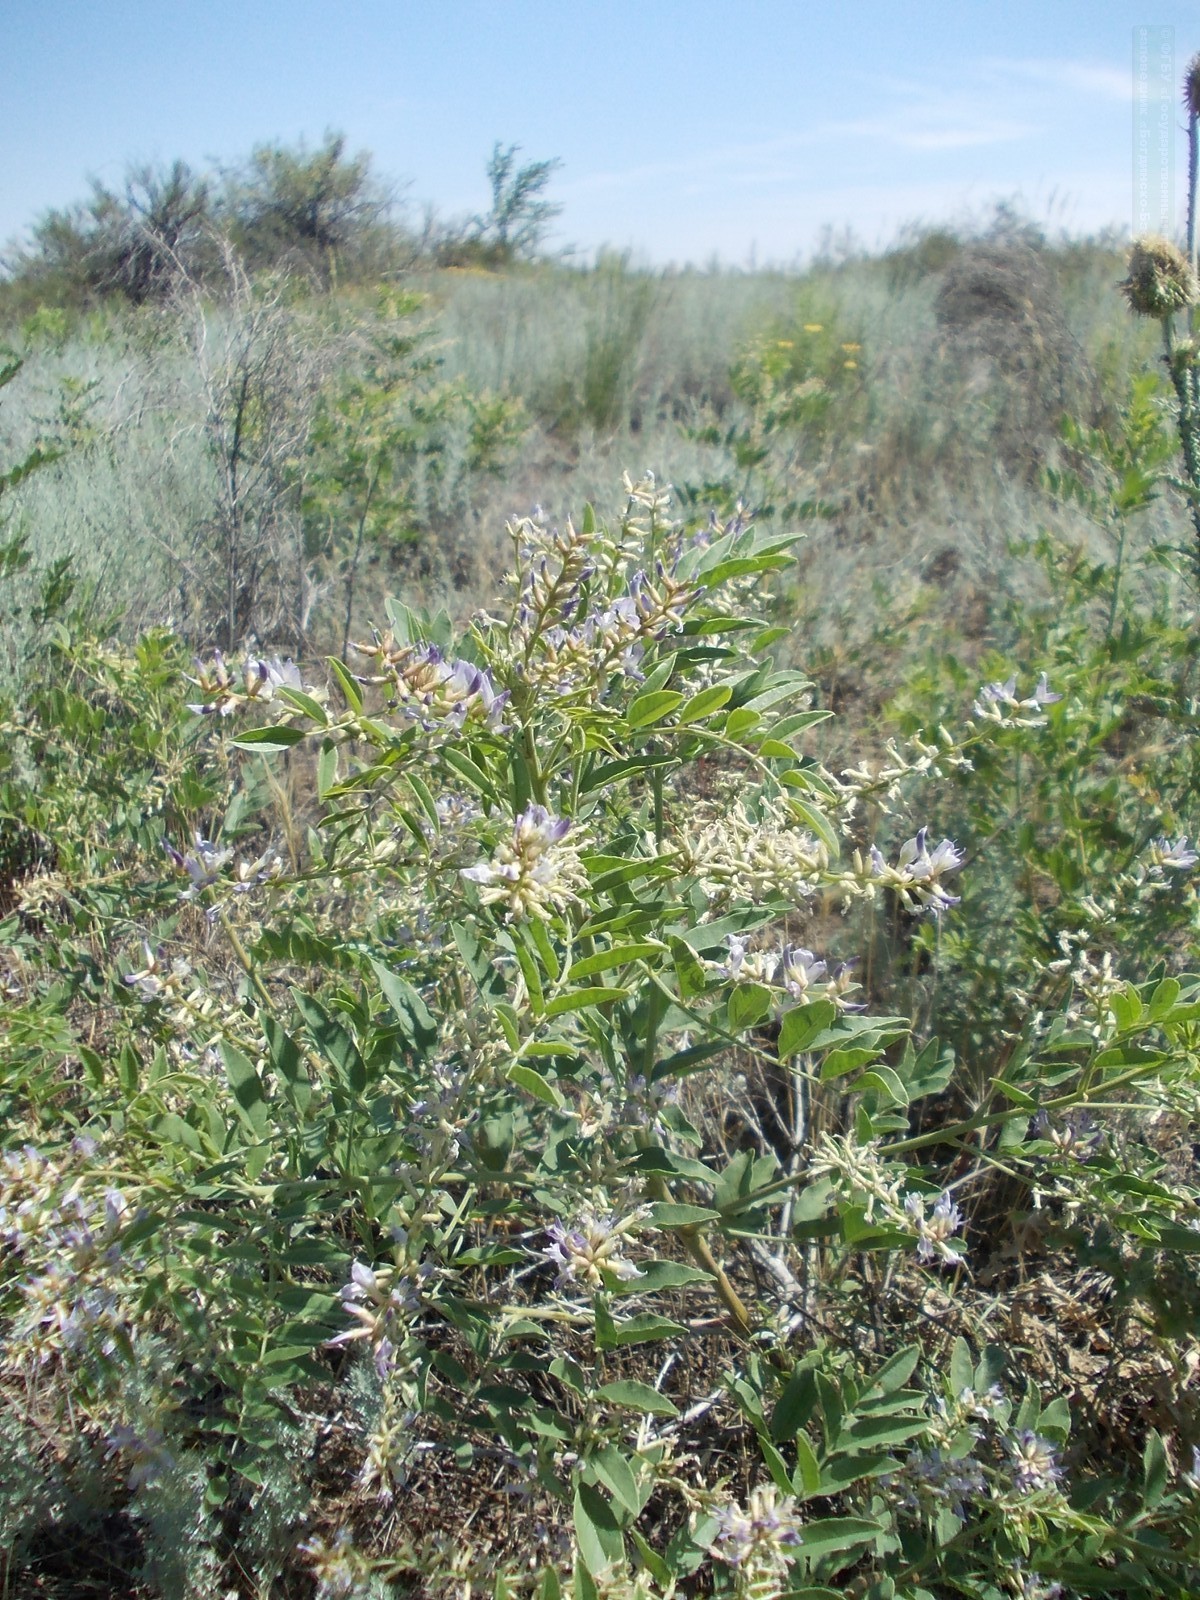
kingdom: Plantae
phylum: Tracheophyta
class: Magnoliopsida
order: Fabales
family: Fabaceae
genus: Glycyrrhiza
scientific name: Glycyrrhiza glabra
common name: Liquorice
